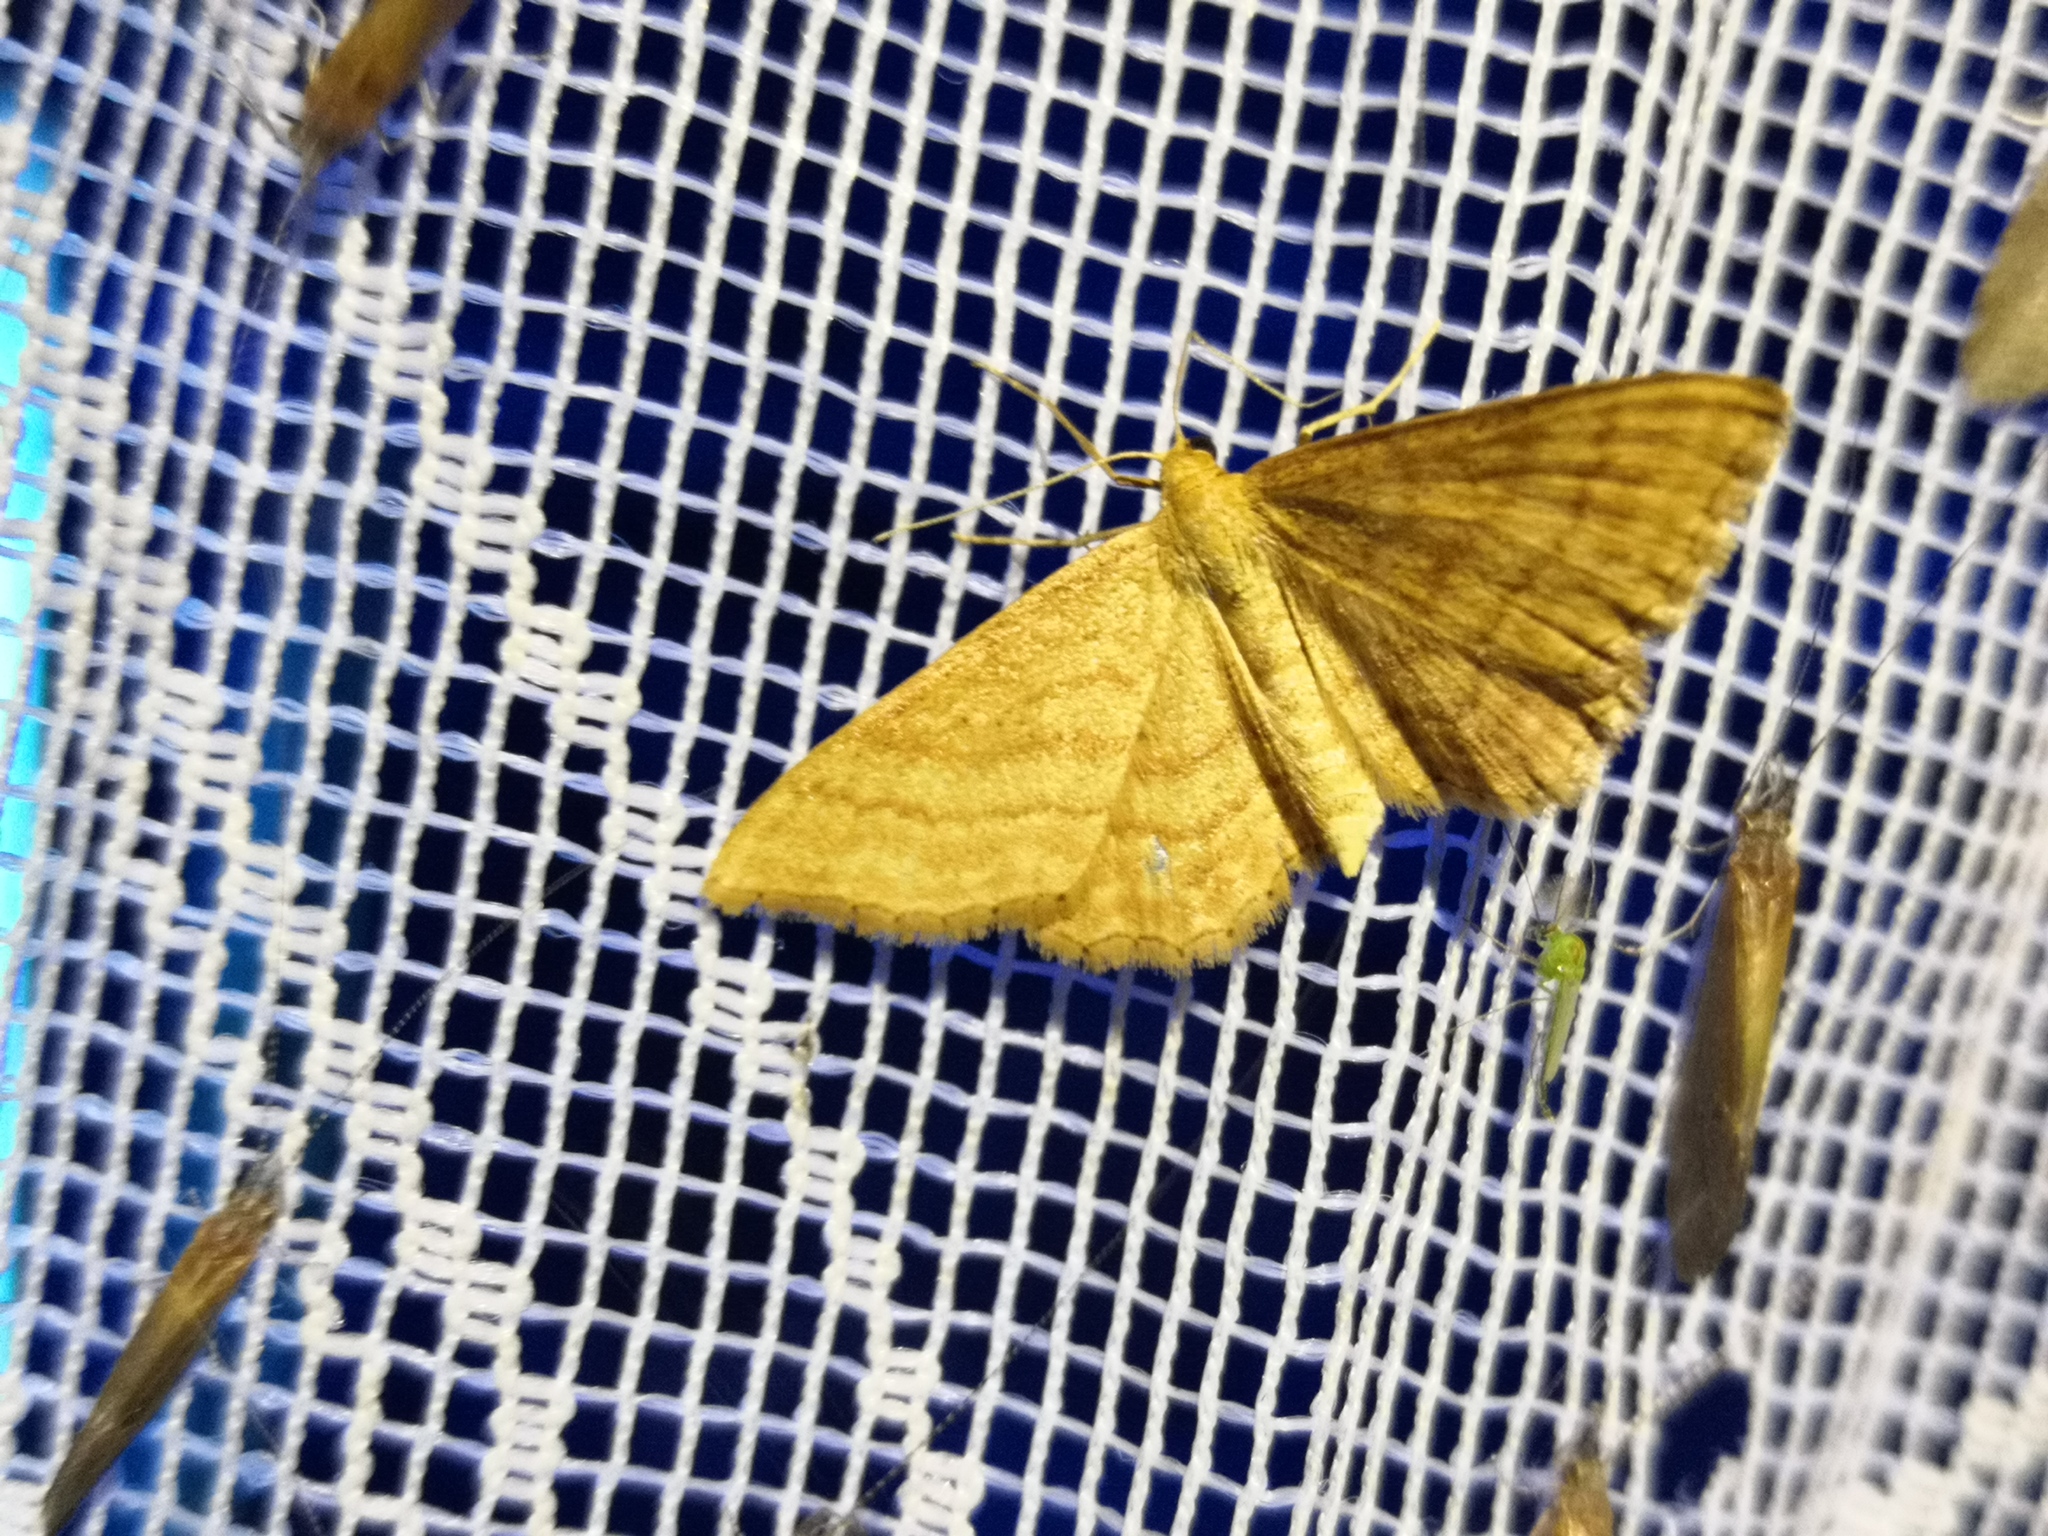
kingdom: Animalia
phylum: Arthropoda
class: Insecta
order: Lepidoptera
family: Geometridae
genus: Idaea
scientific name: Idaea ochrata
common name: Bright wave
